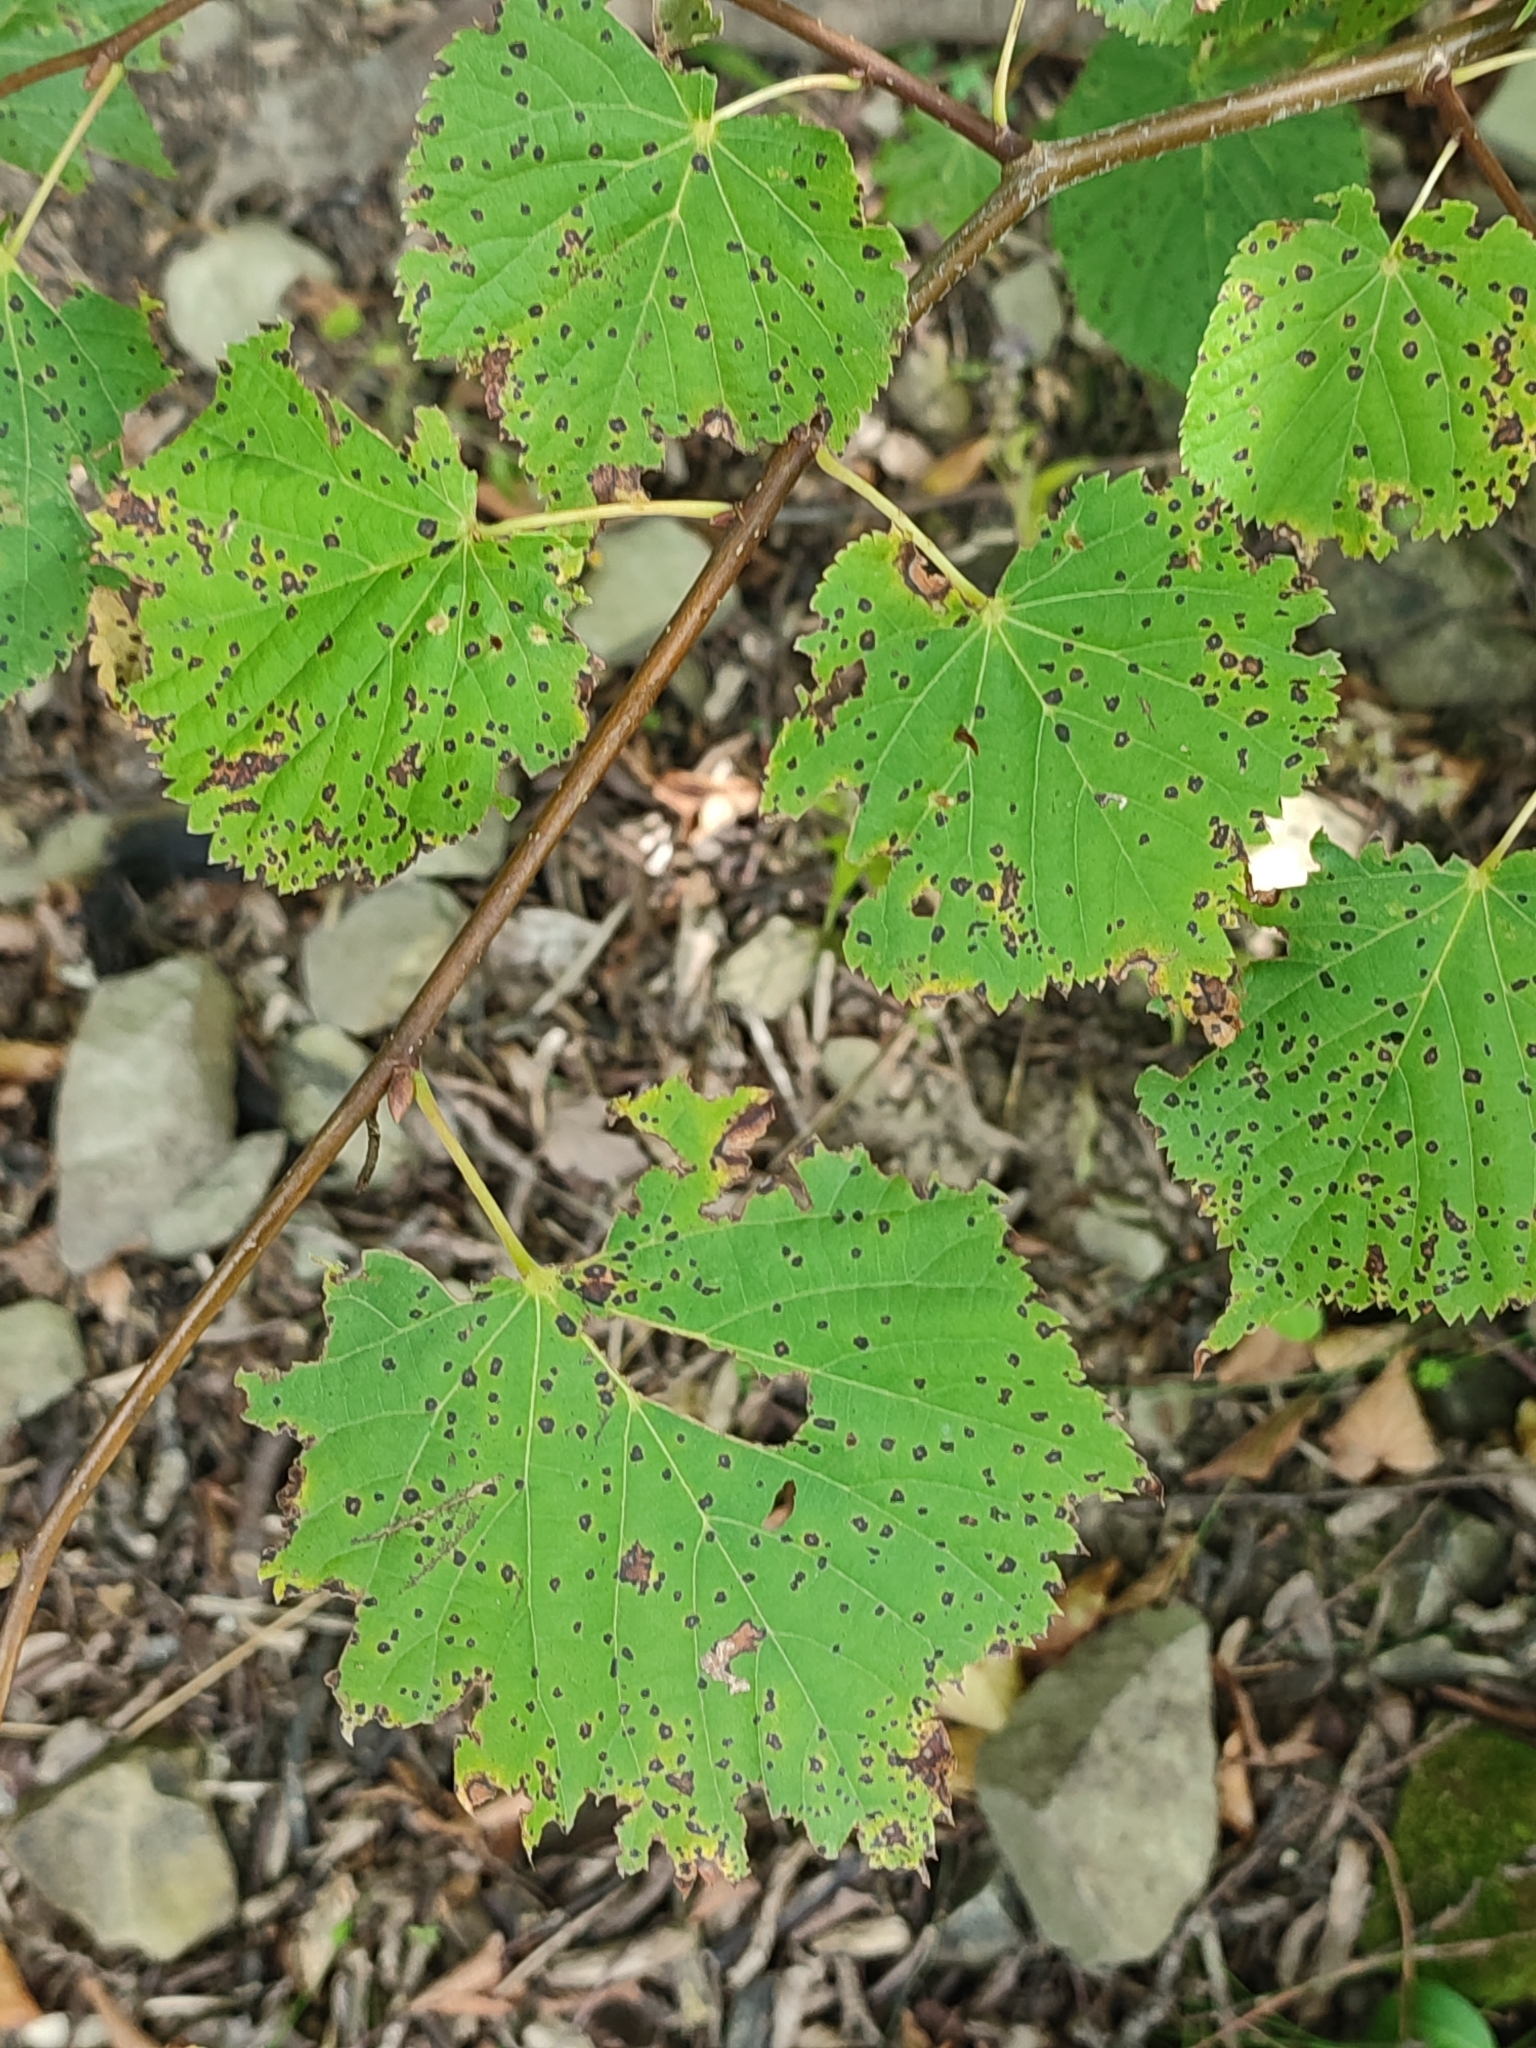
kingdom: Animalia
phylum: Arthropoda
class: Arachnida
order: Trombidiformes
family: Eriophyidae
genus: Eriophyes
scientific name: Eriophyes tiliae
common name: Red nail gall mite
